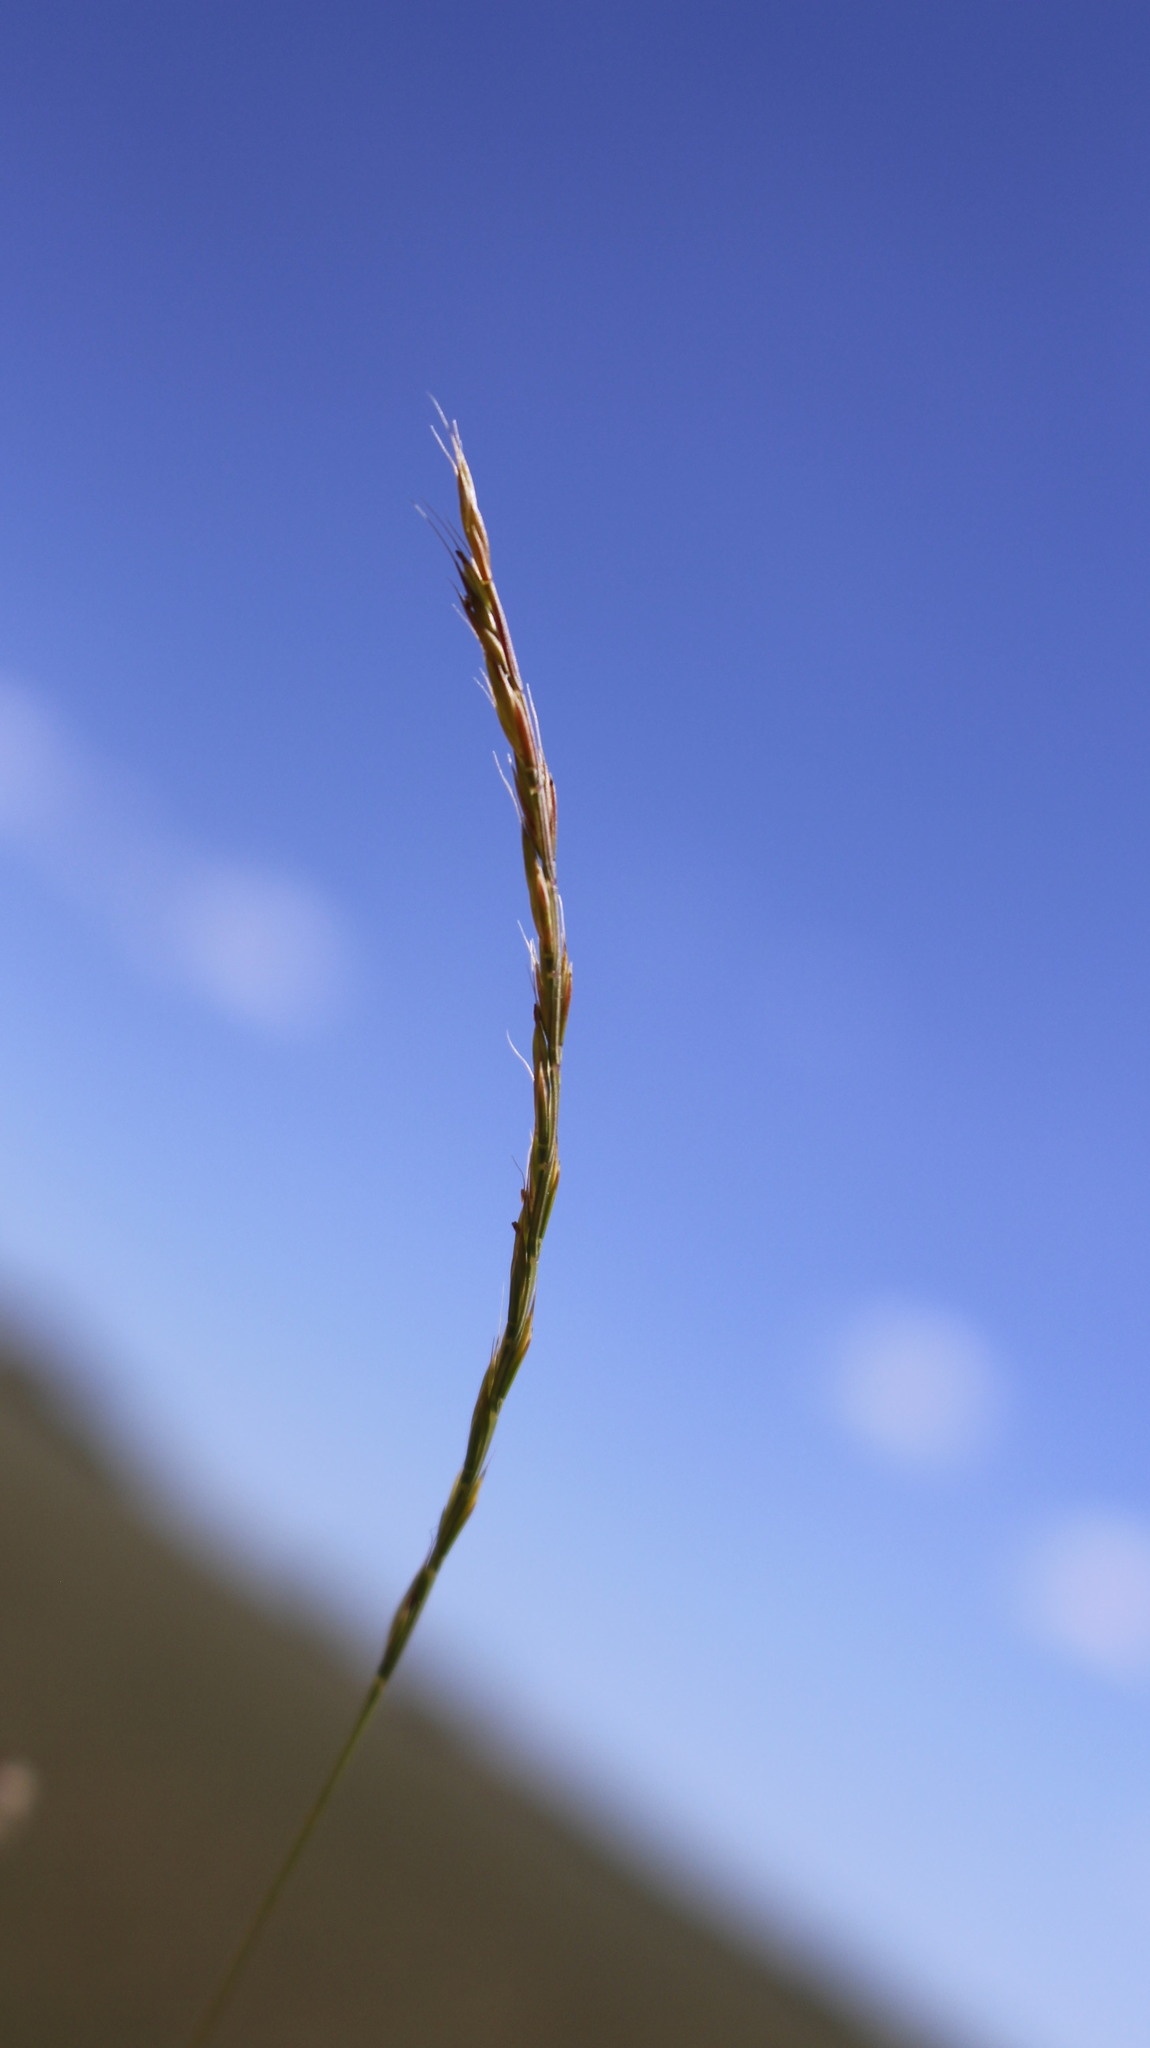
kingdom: Plantae
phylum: Tracheophyta
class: Liliopsida
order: Poales
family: Poaceae
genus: Festuca
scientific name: Festuca maritima
